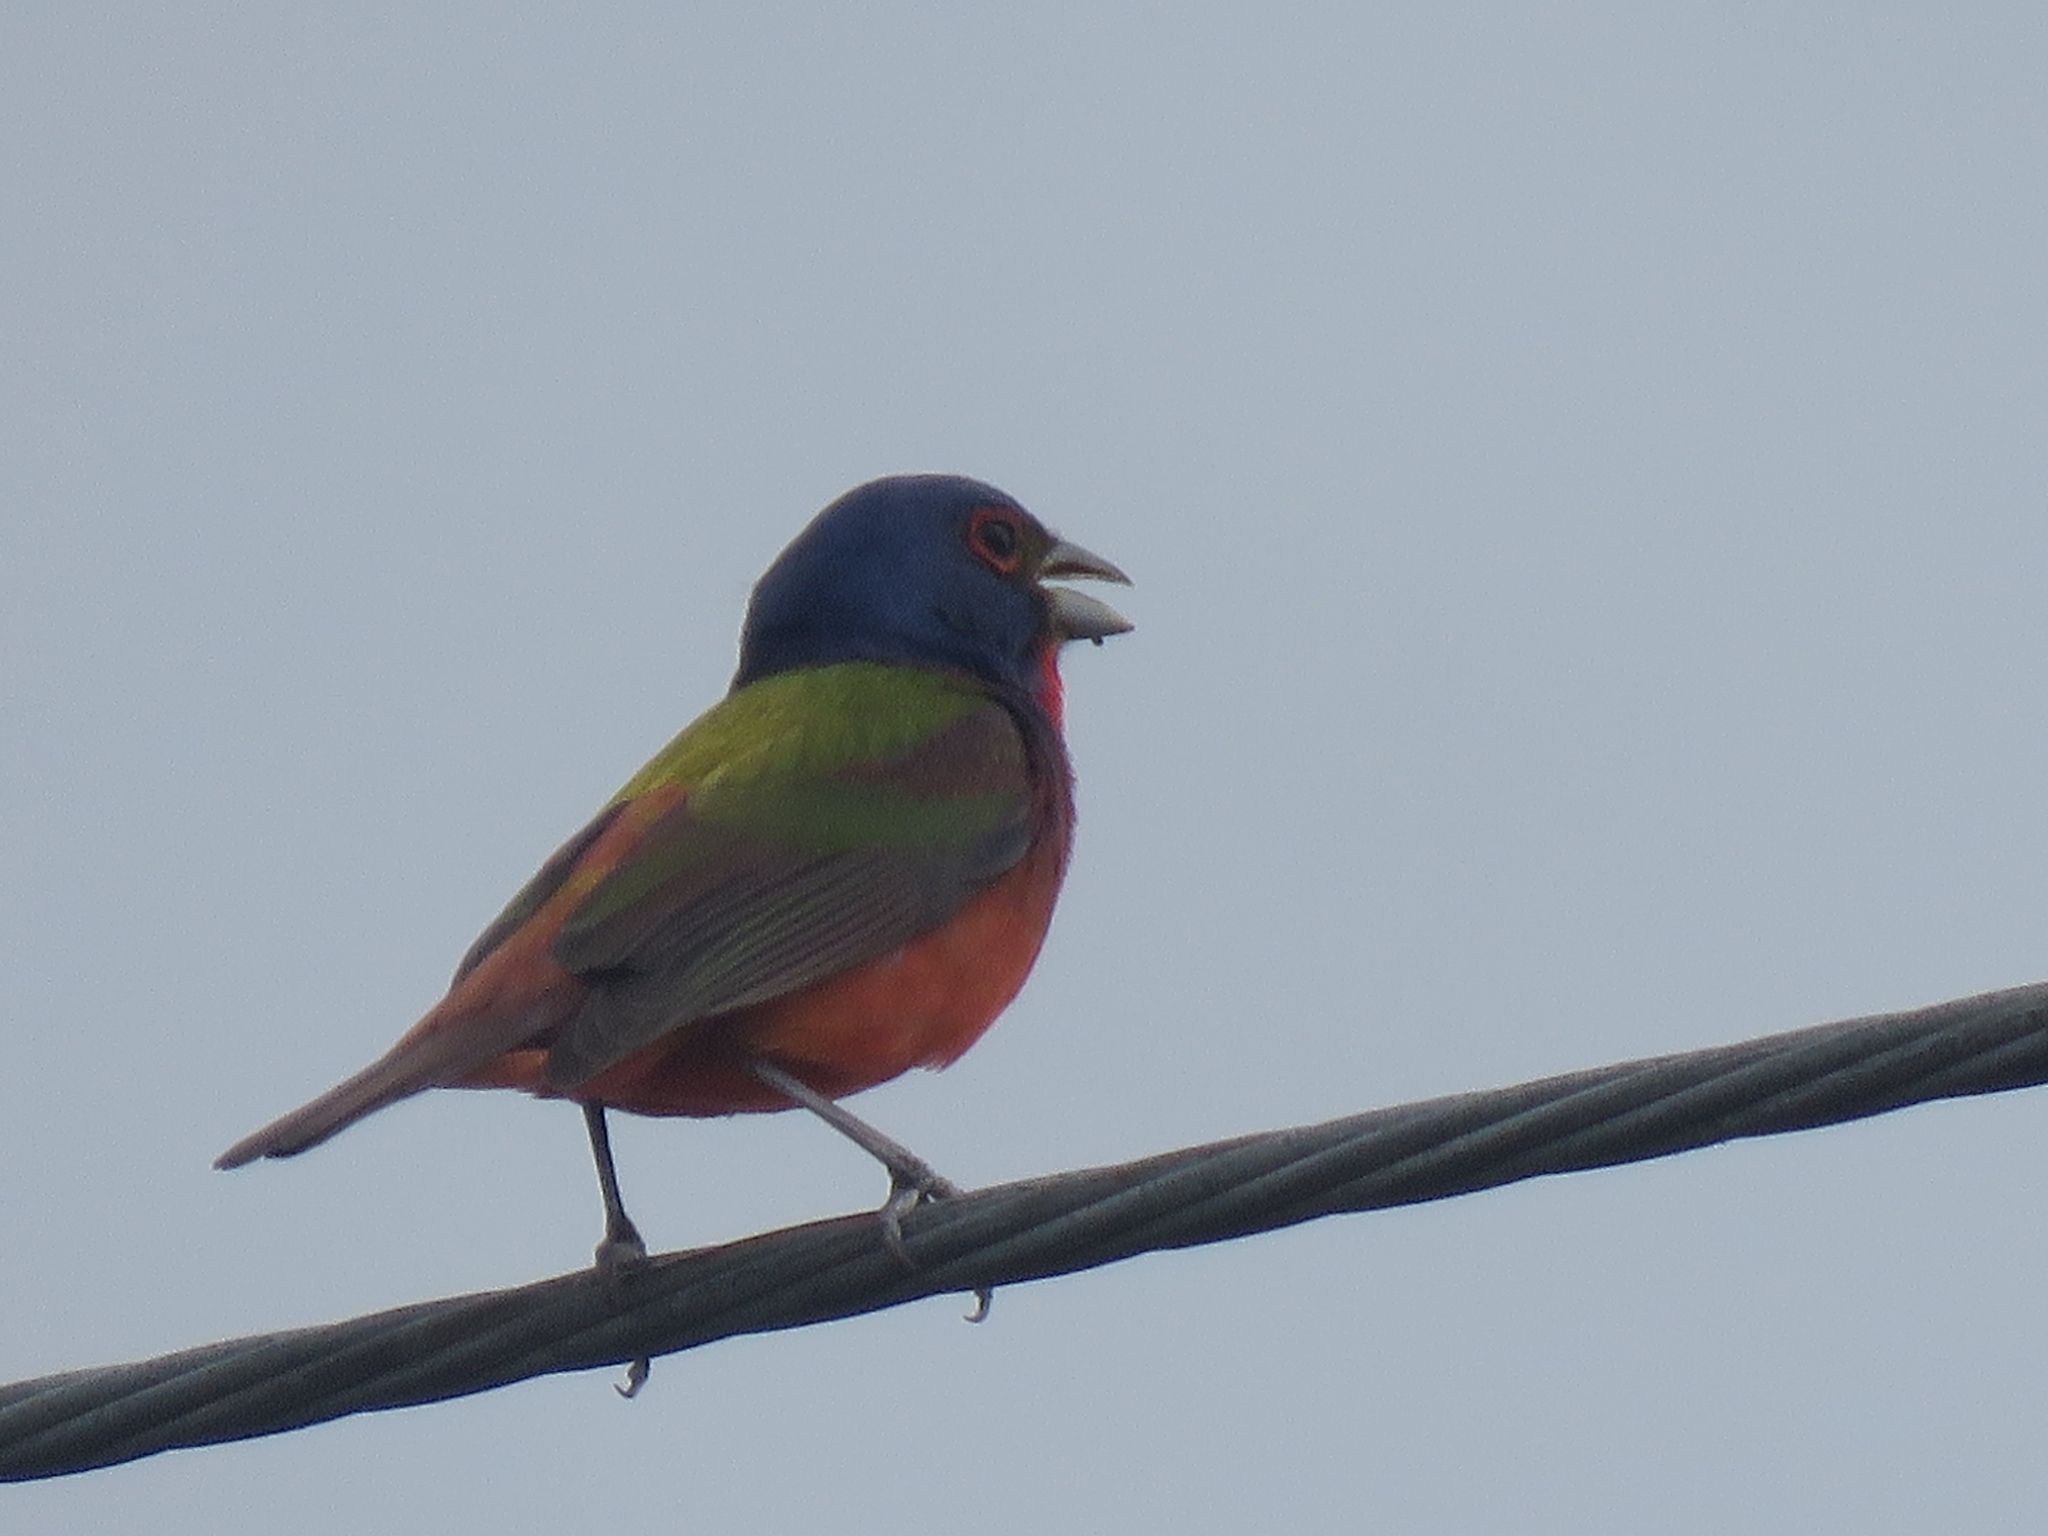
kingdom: Animalia
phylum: Chordata
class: Aves
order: Passeriformes
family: Cardinalidae
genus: Passerina
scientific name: Passerina ciris
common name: Painted bunting
